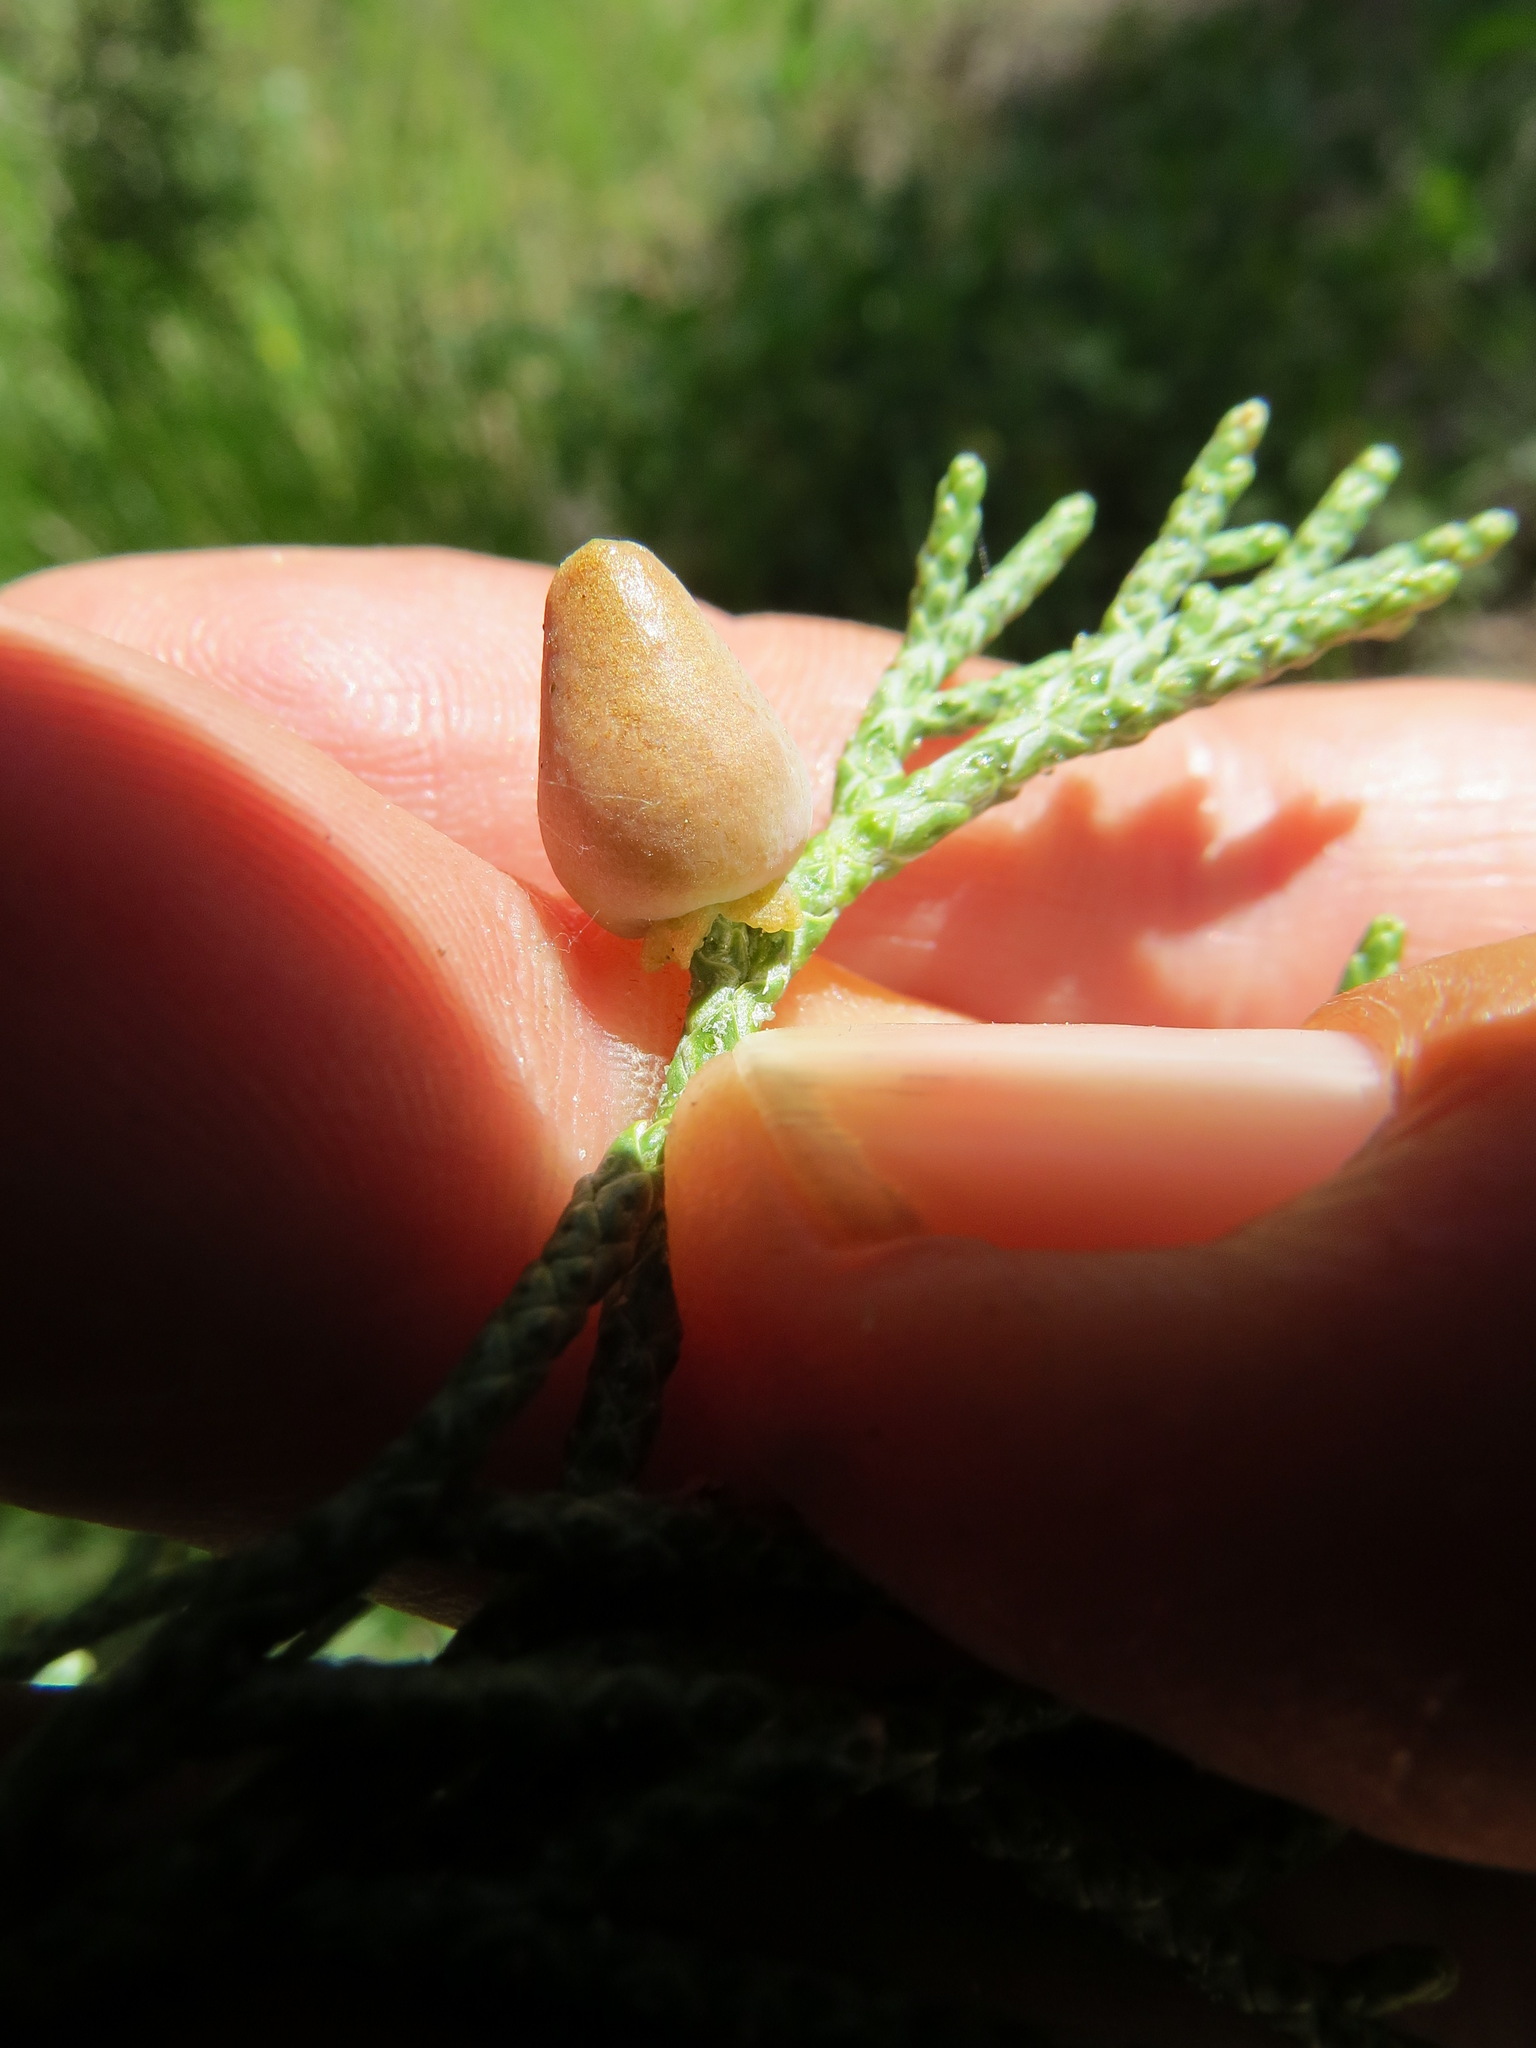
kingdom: Animalia
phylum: Arthropoda
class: Insecta
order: Diptera
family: Cecidomyiidae
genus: Walshomyia
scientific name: Walshomyia juniperina
